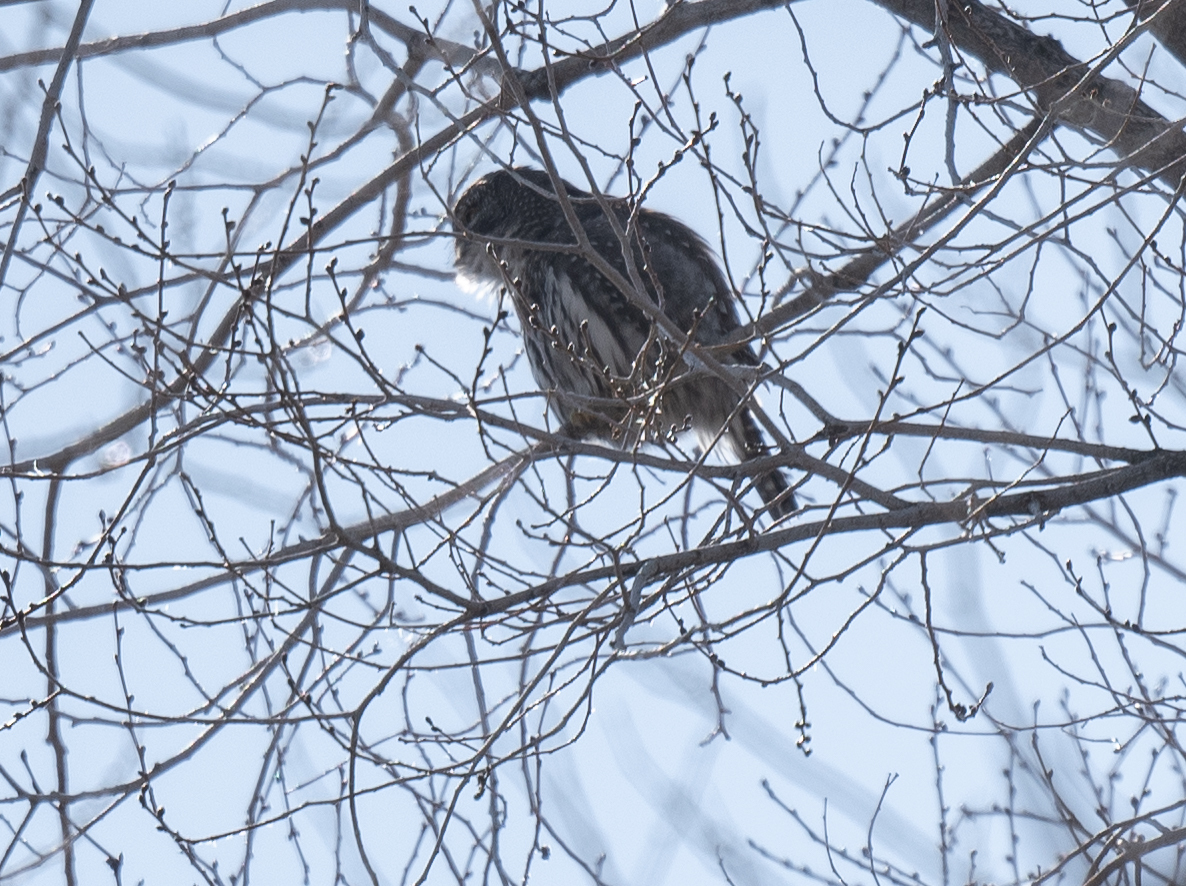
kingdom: Animalia
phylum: Chordata
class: Aves
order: Strigiformes
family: Strigidae
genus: Glaucidium
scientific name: Glaucidium gnoma
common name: Northern pygmy-owl
